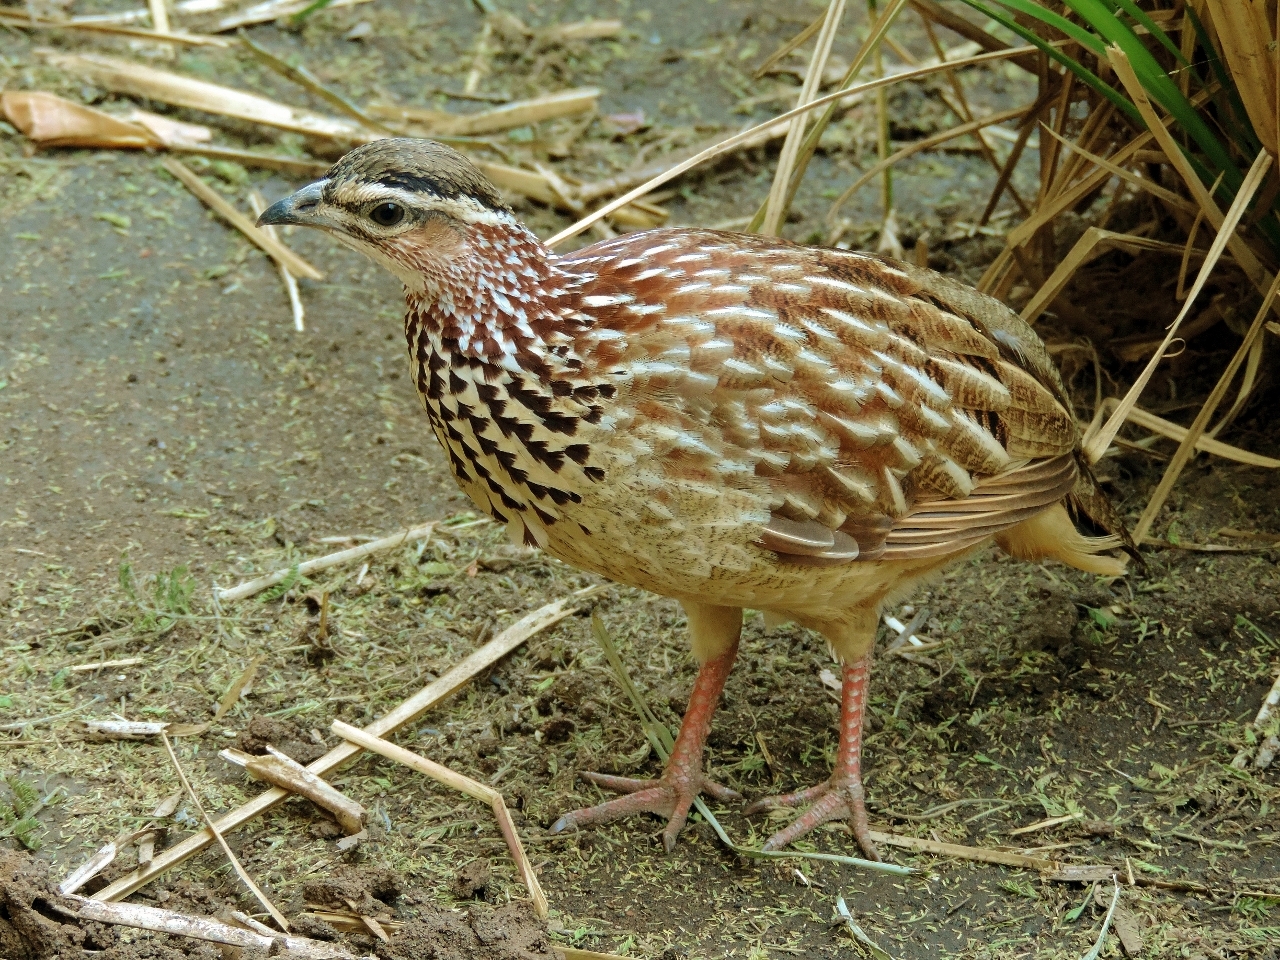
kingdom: Animalia
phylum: Chordata
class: Aves
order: Galliformes
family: Phasianidae
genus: Ortygornis
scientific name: Ortygornis sephaena
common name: Crested francolin
